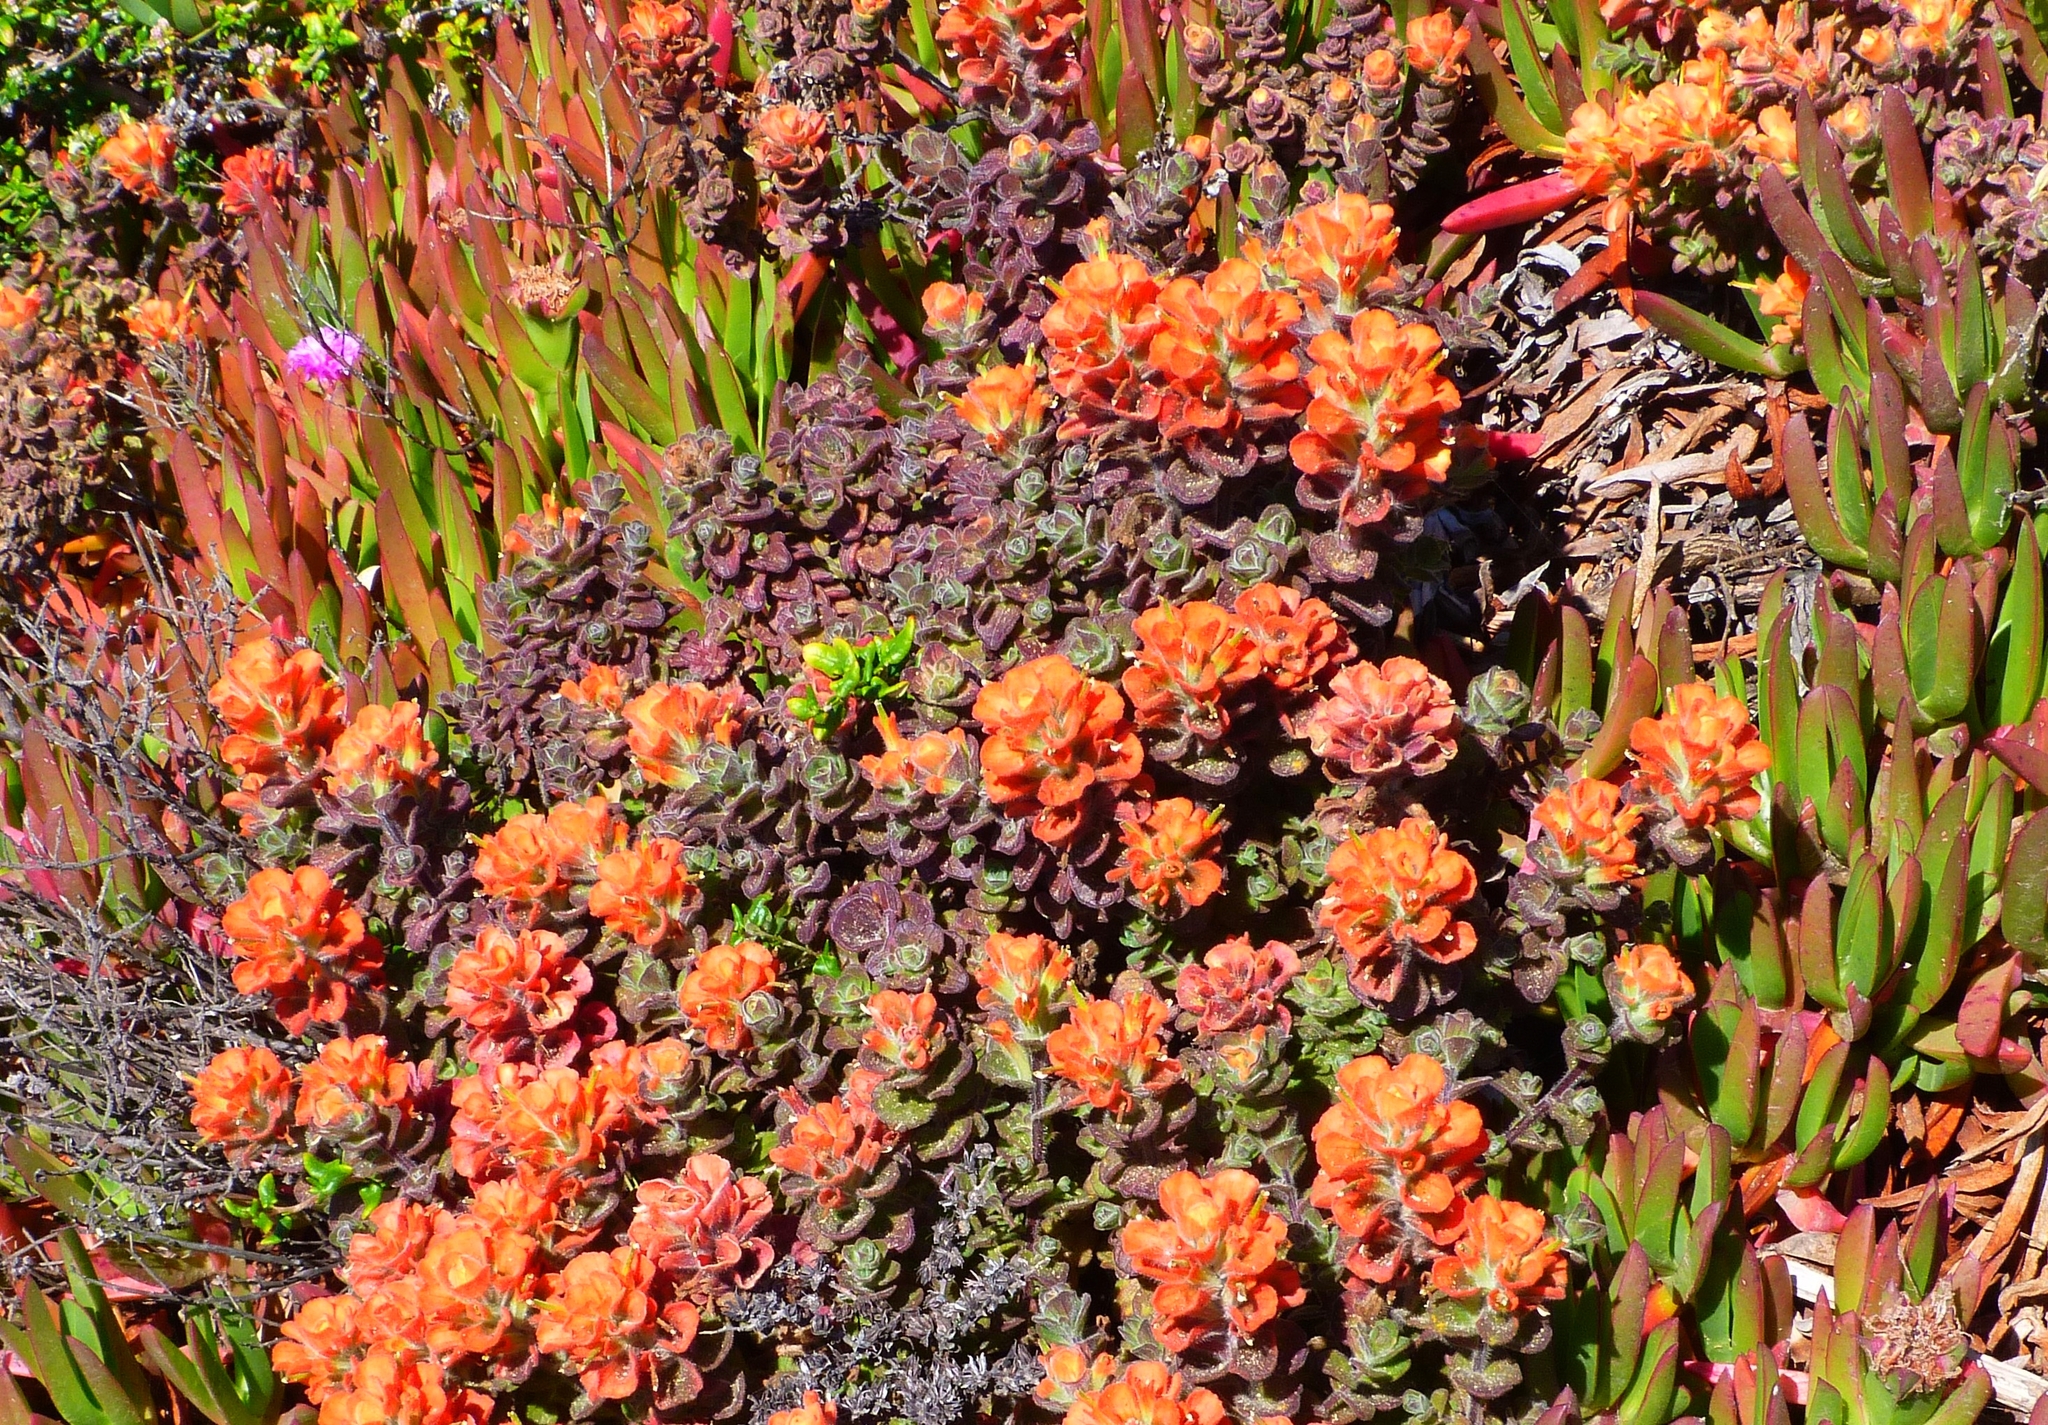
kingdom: Plantae
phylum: Tracheophyta
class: Magnoliopsida
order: Lamiales
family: Orobanchaceae
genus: Castilleja
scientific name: Castilleja latifolia
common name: Monterey indian paintbrush
